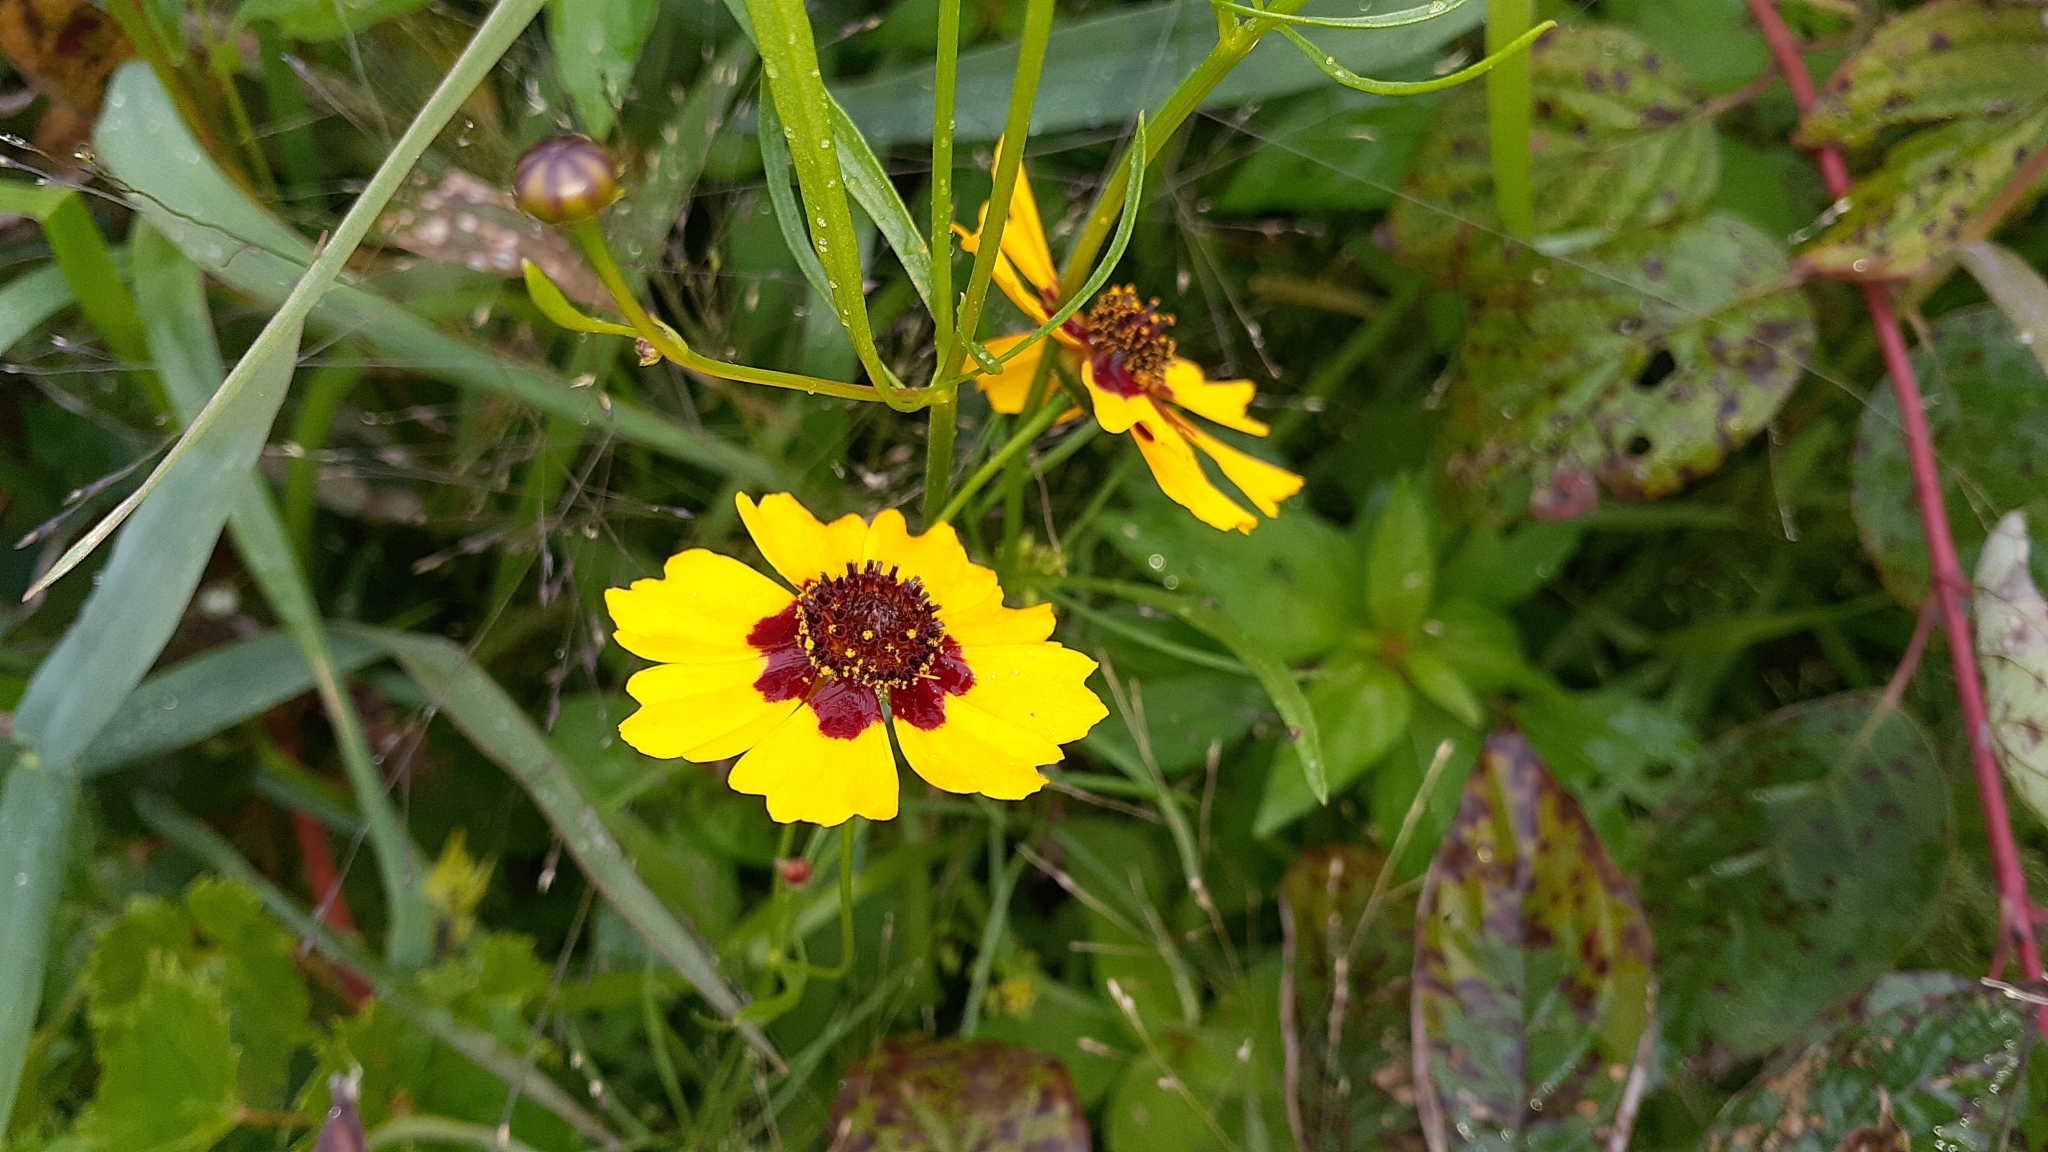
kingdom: Plantae
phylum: Tracheophyta
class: Magnoliopsida
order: Asterales
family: Asteraceae
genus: Coreopsis
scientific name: Coreopsis tinctoria
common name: Garden tickseed
